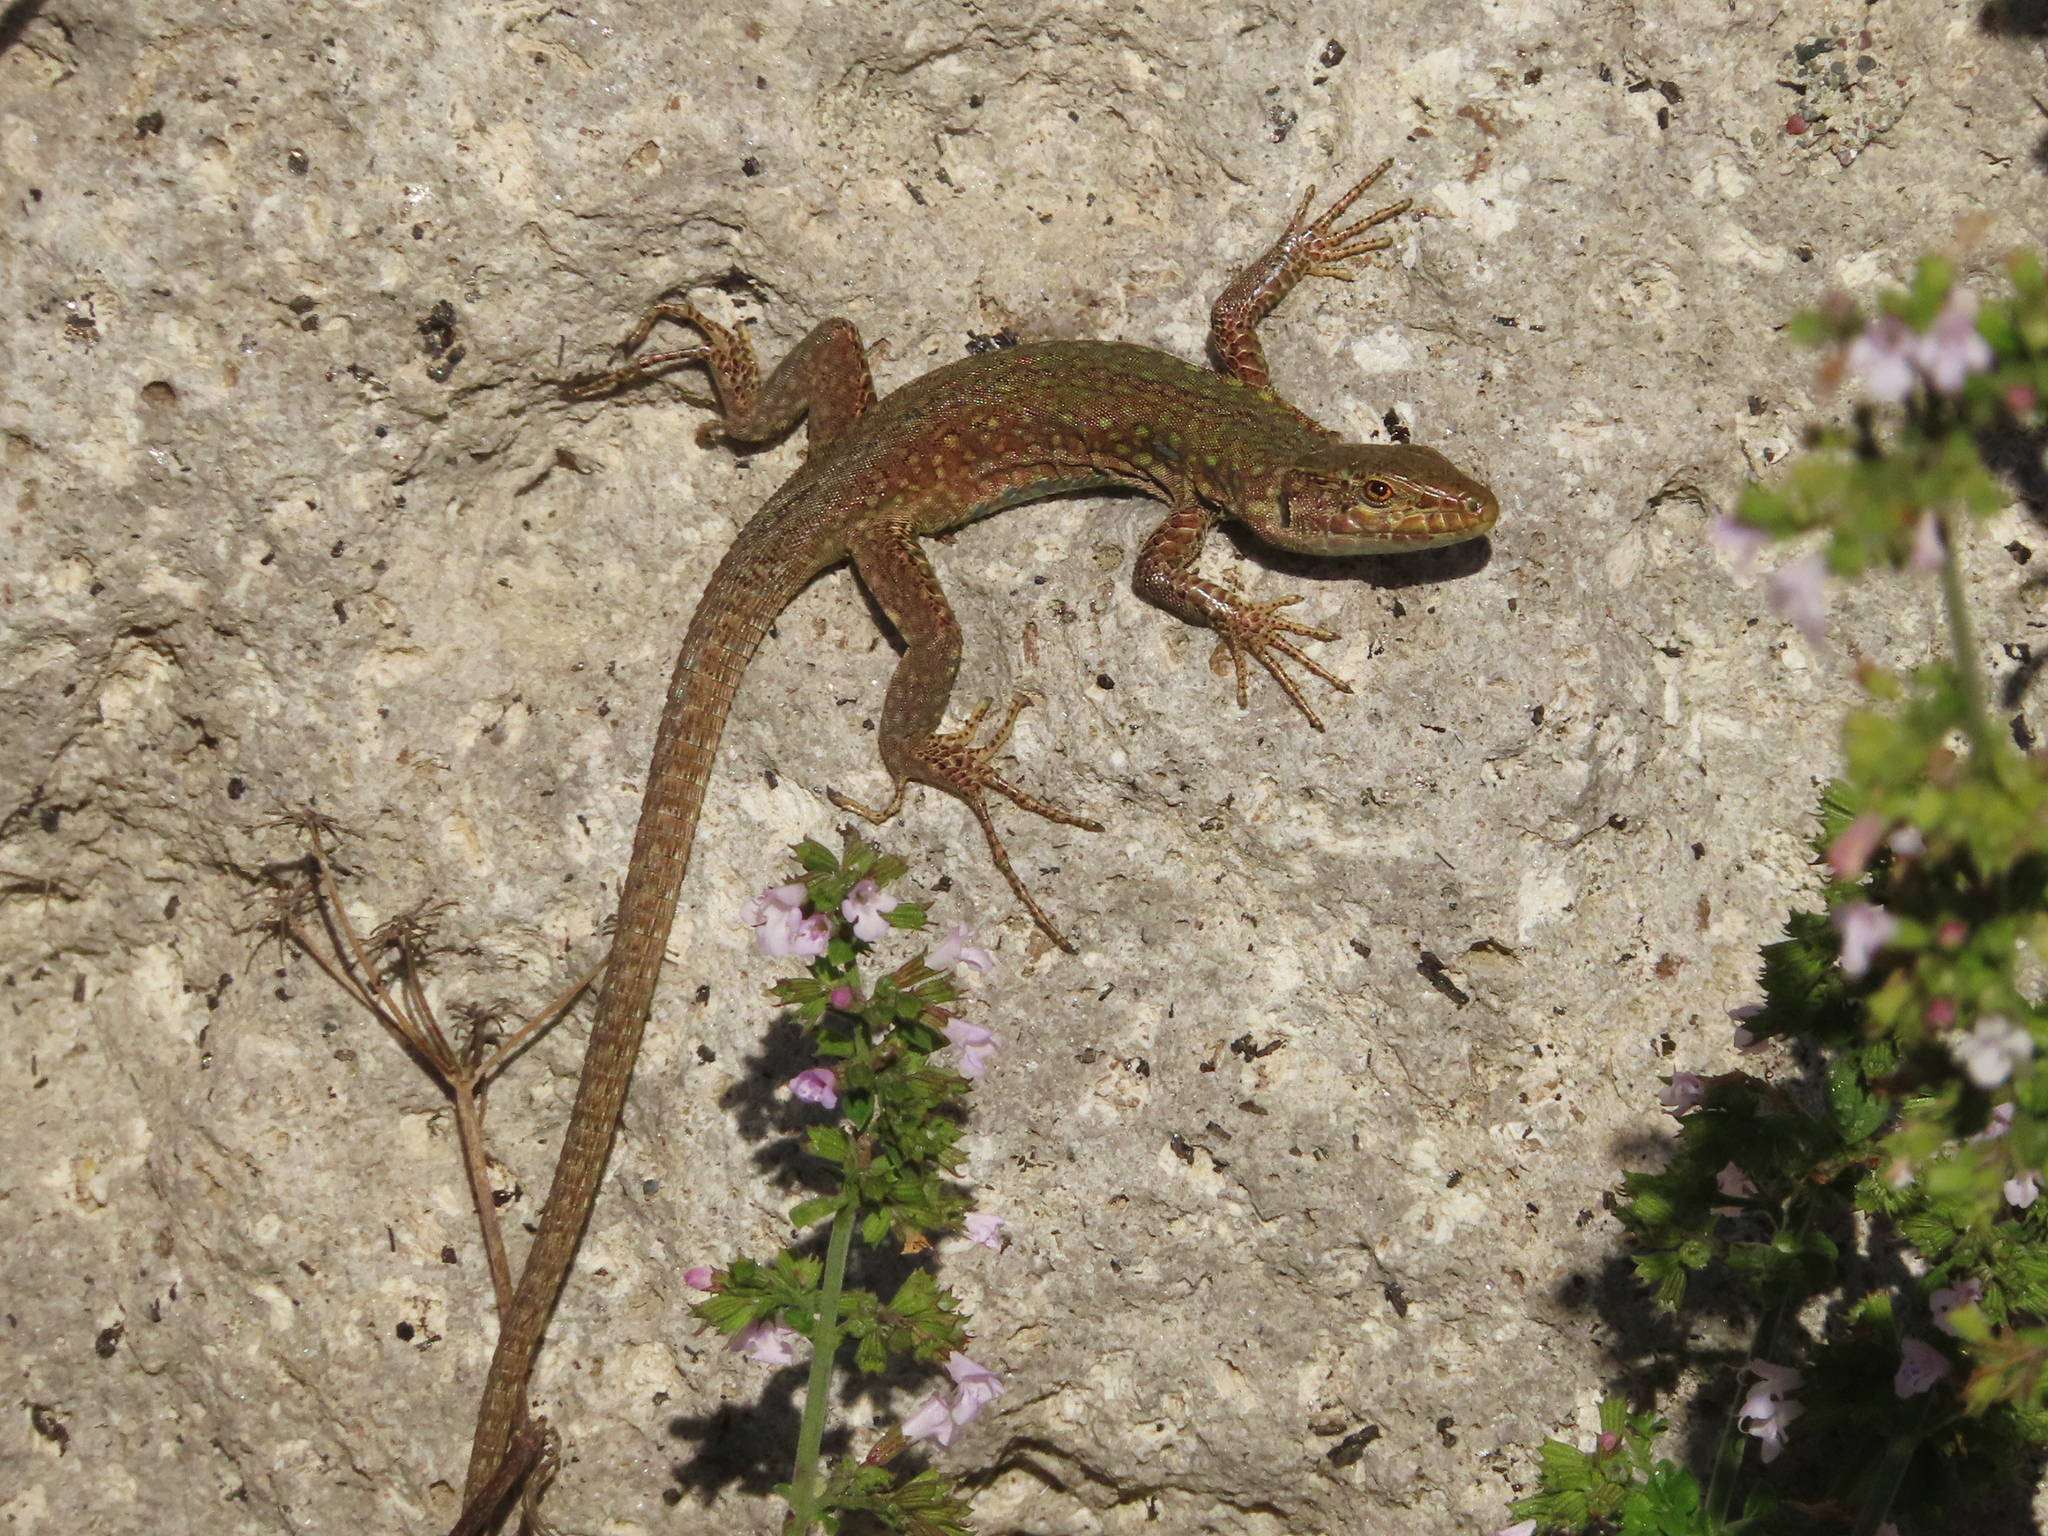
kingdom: Animalia
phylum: Chordata
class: Squamata
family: Lacertidae
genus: Podarcis
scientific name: Podarcis siculus
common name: Italian wall lizard
